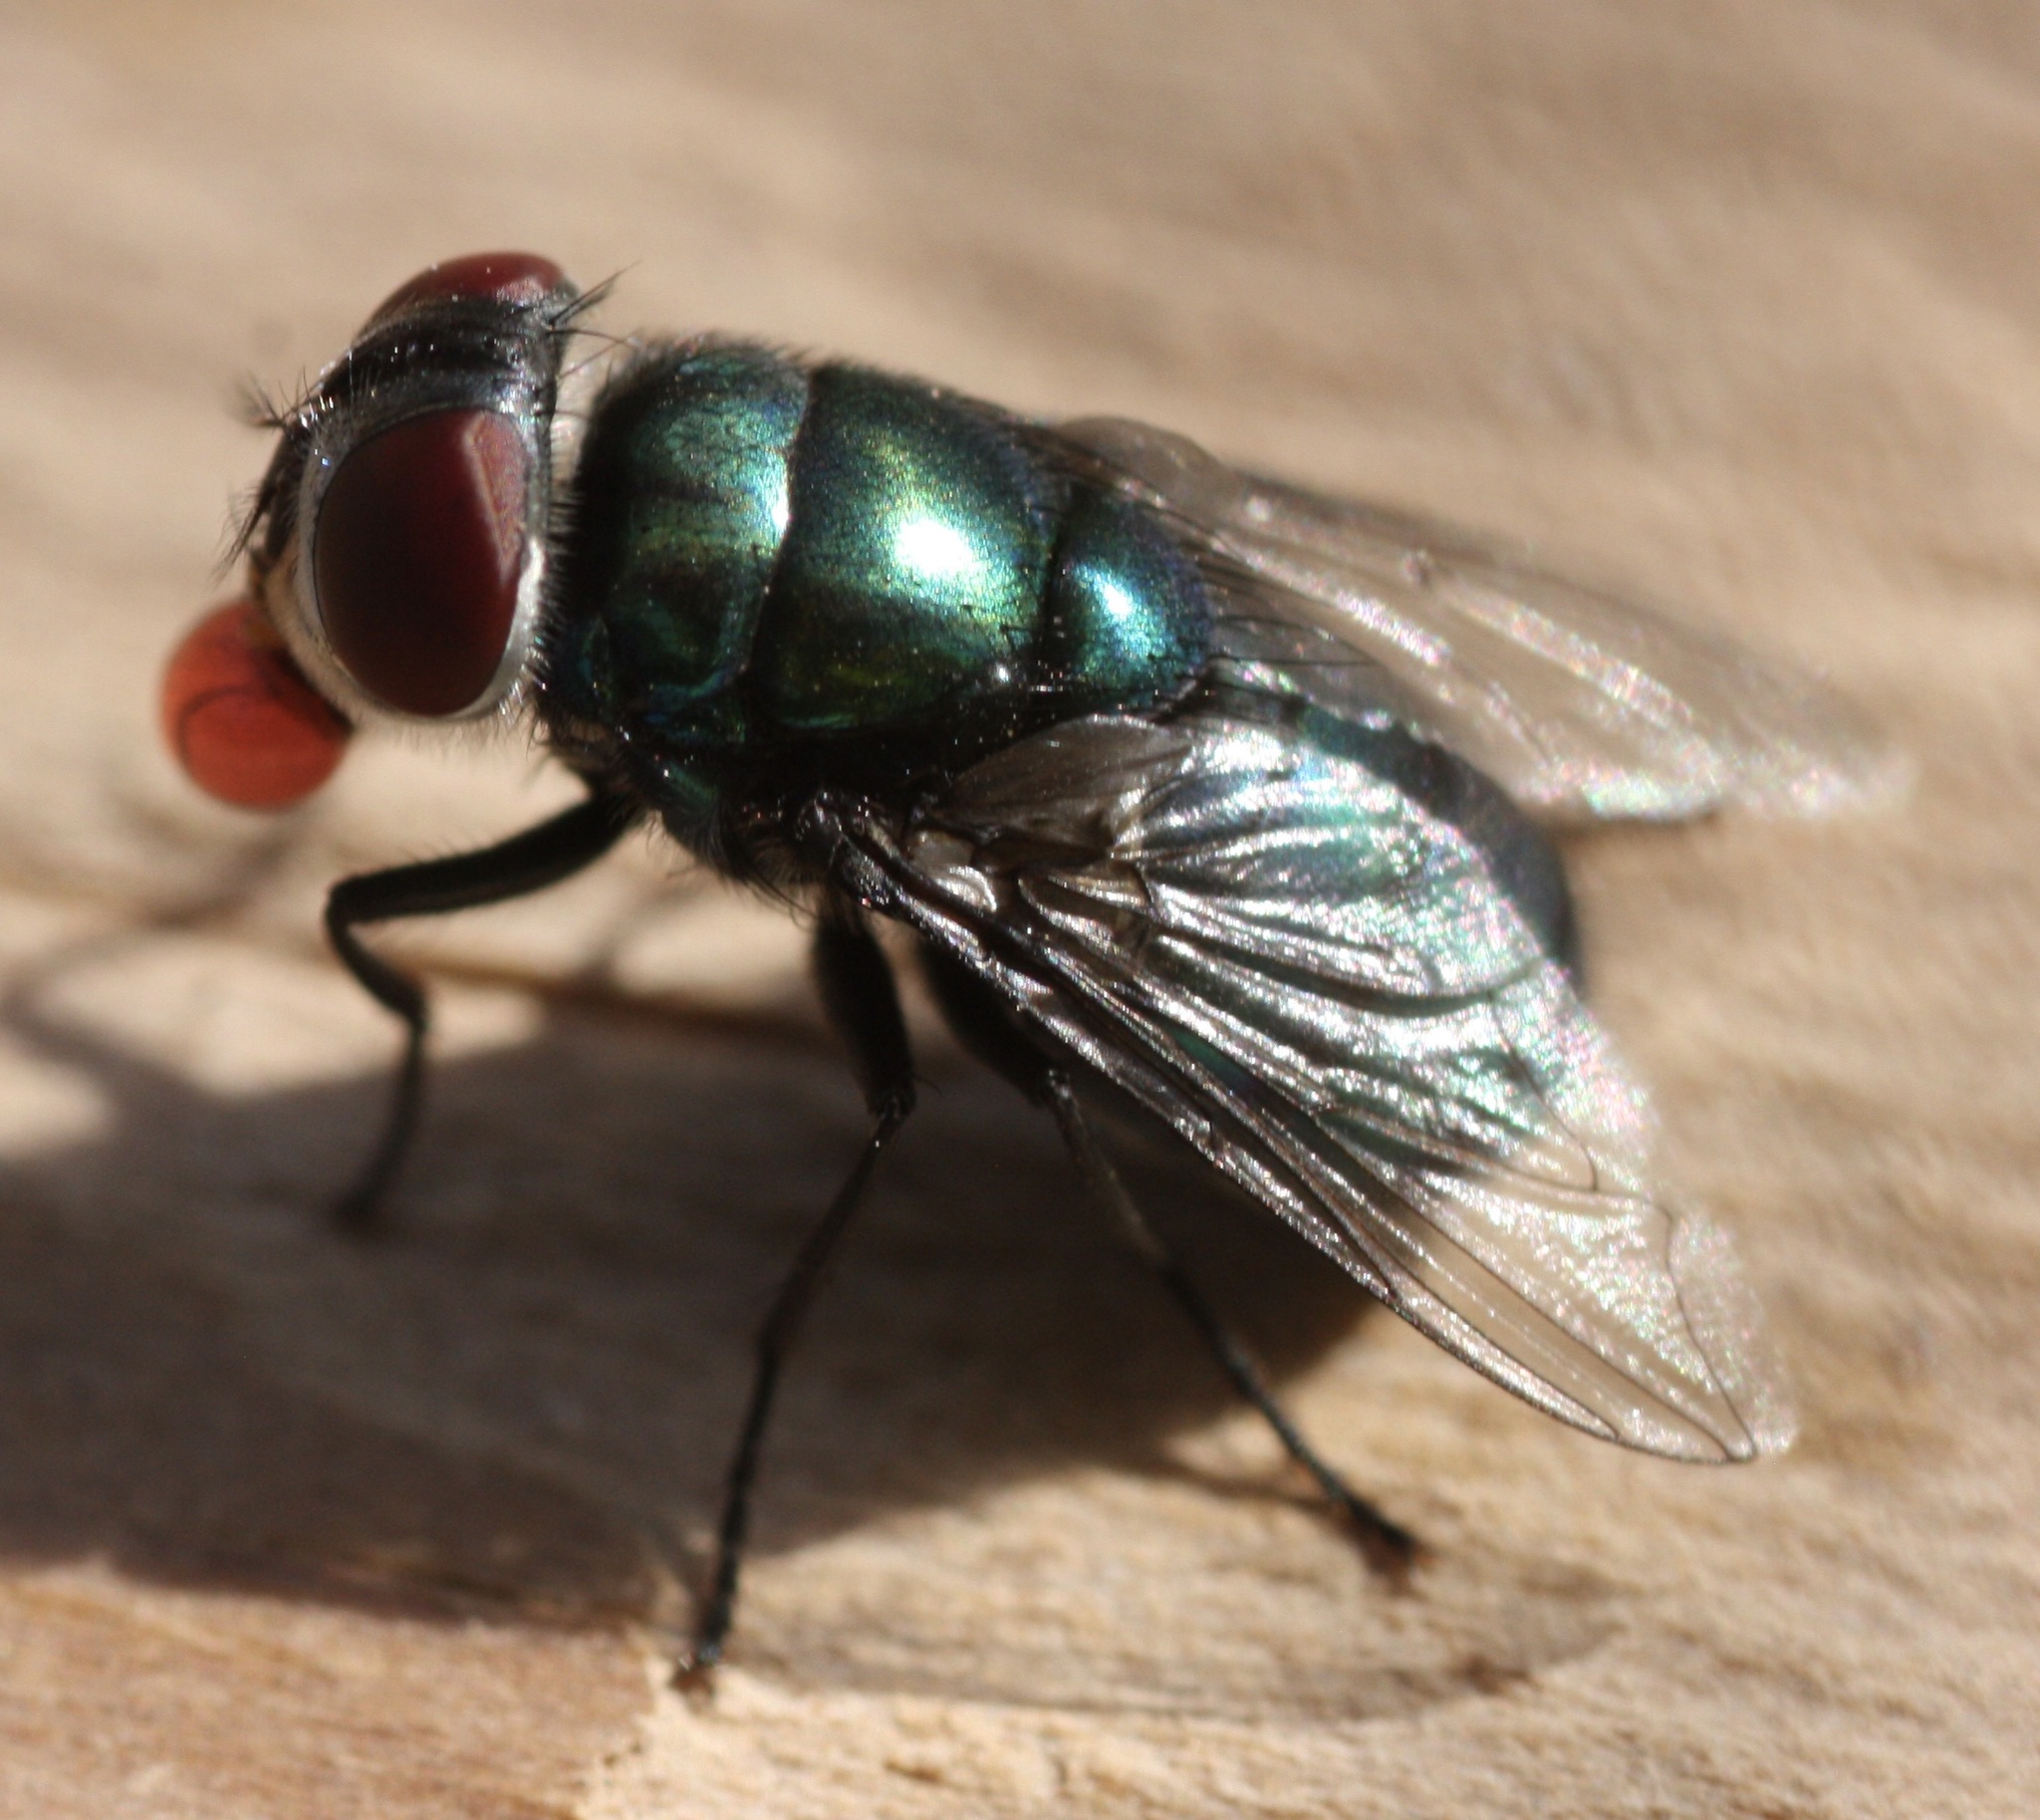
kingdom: Animalia
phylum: Arthropoda
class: Insecta
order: Diptera
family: Calliphoridae
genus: Chrysomya
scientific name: Chrysomya rufifacies
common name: Blow fly
